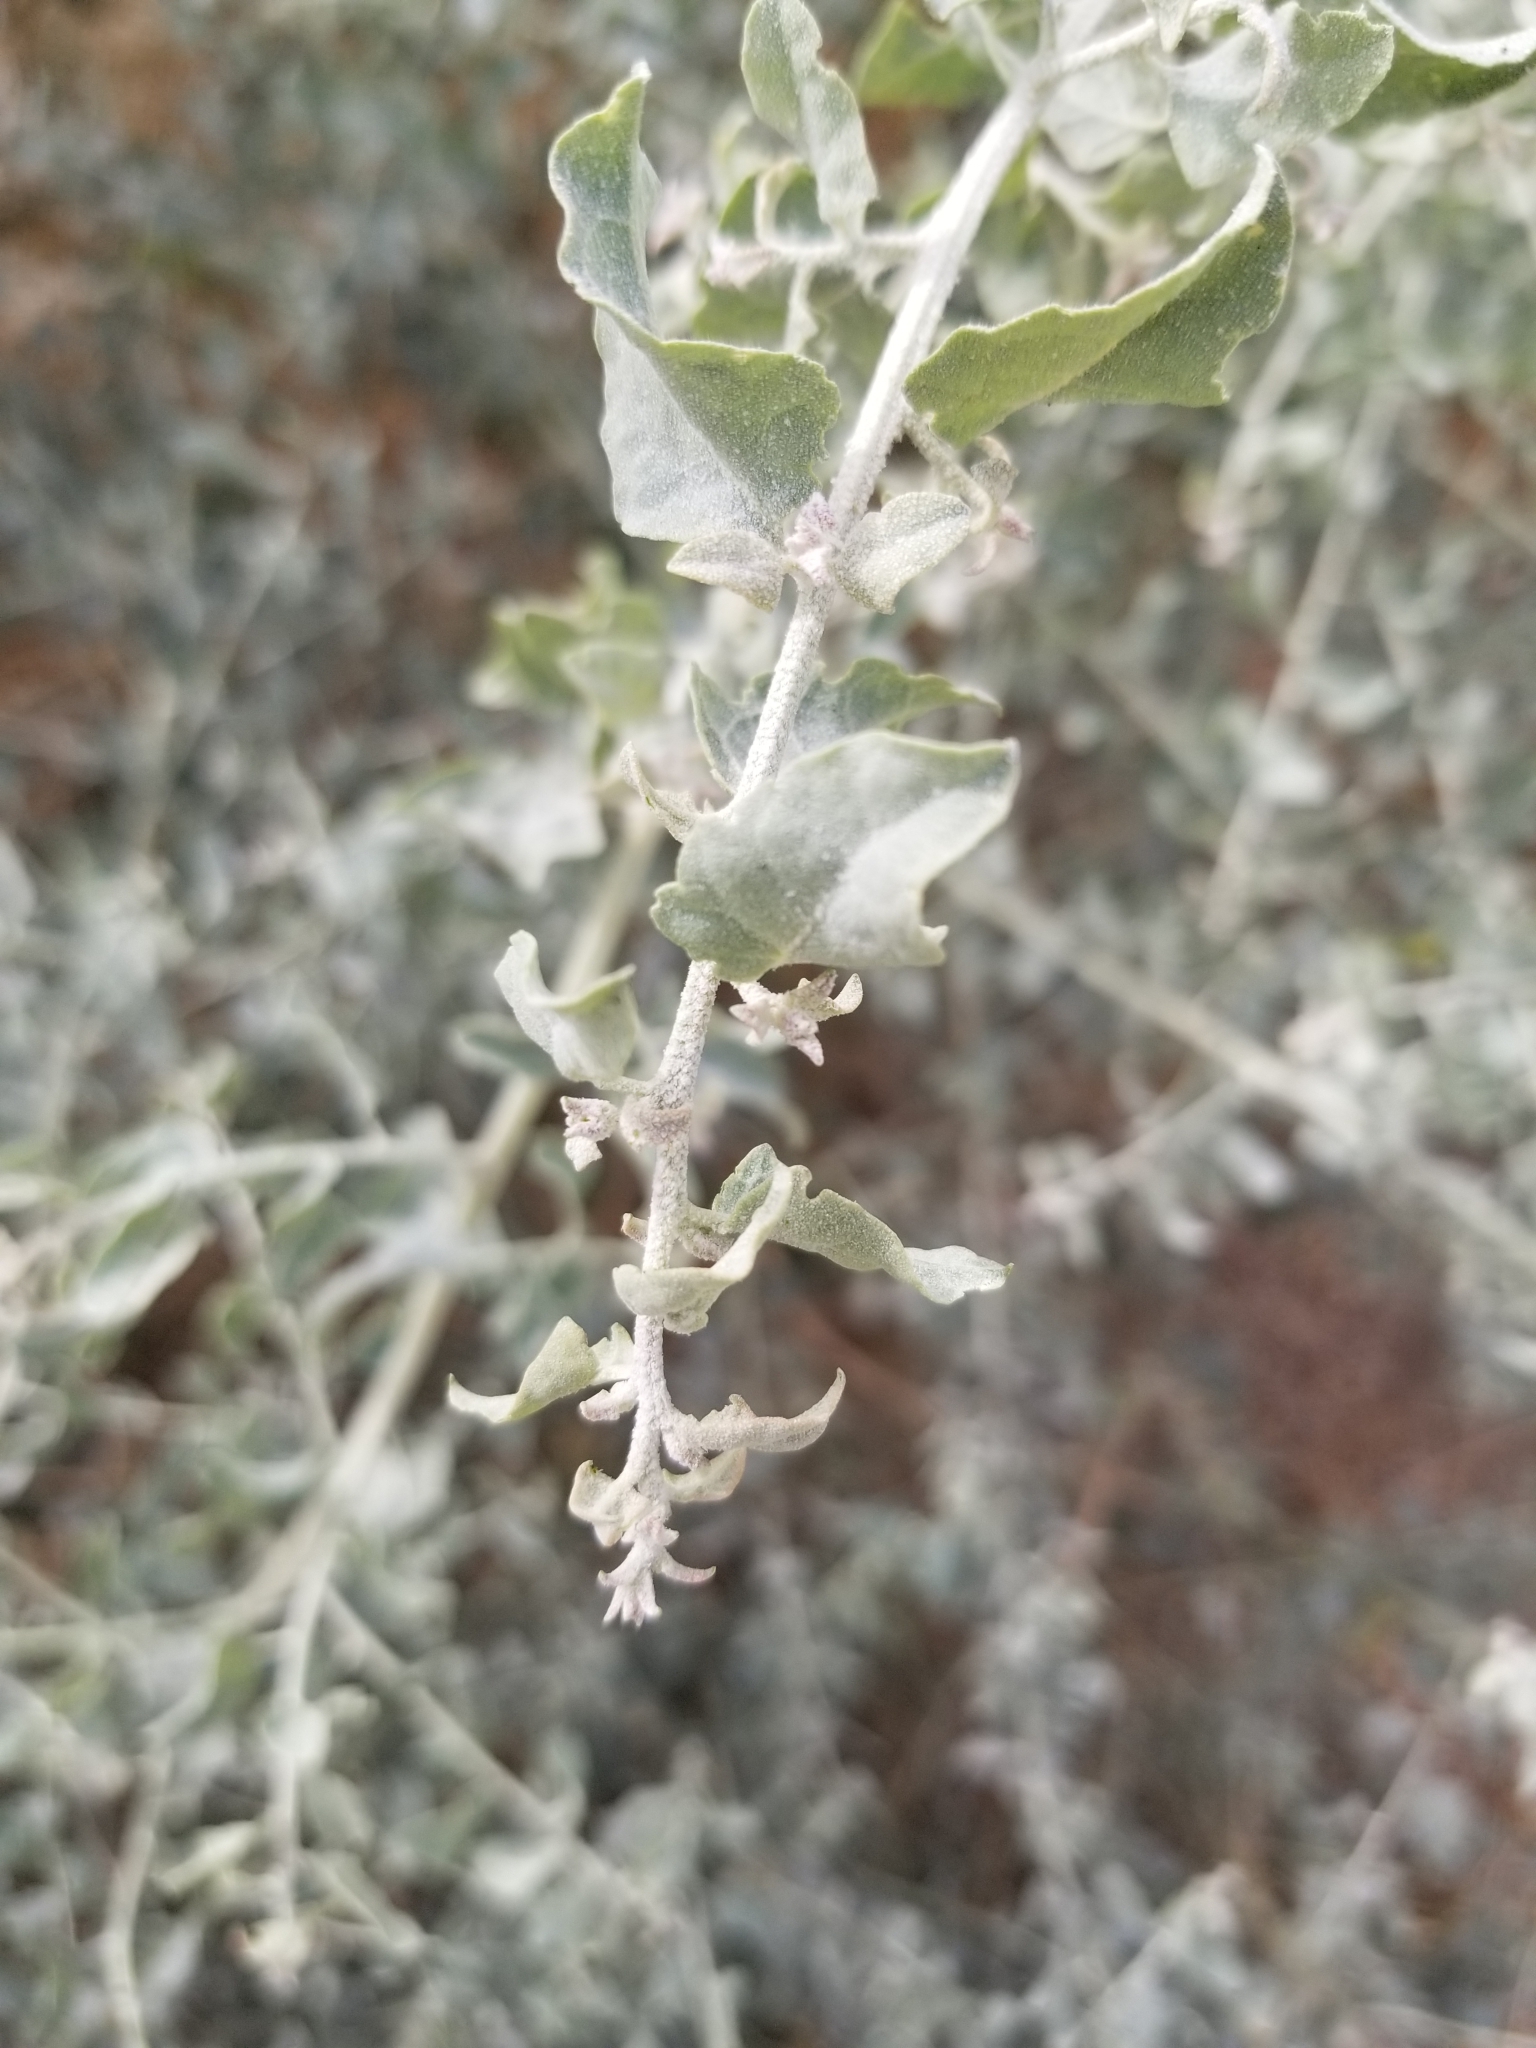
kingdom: Plantae
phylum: Tracheophyta
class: Magnoliopsida
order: Caryophyllales
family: Amaranthaceae
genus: Atriplex
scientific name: Atriplex lentiformis
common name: Big saltbush
